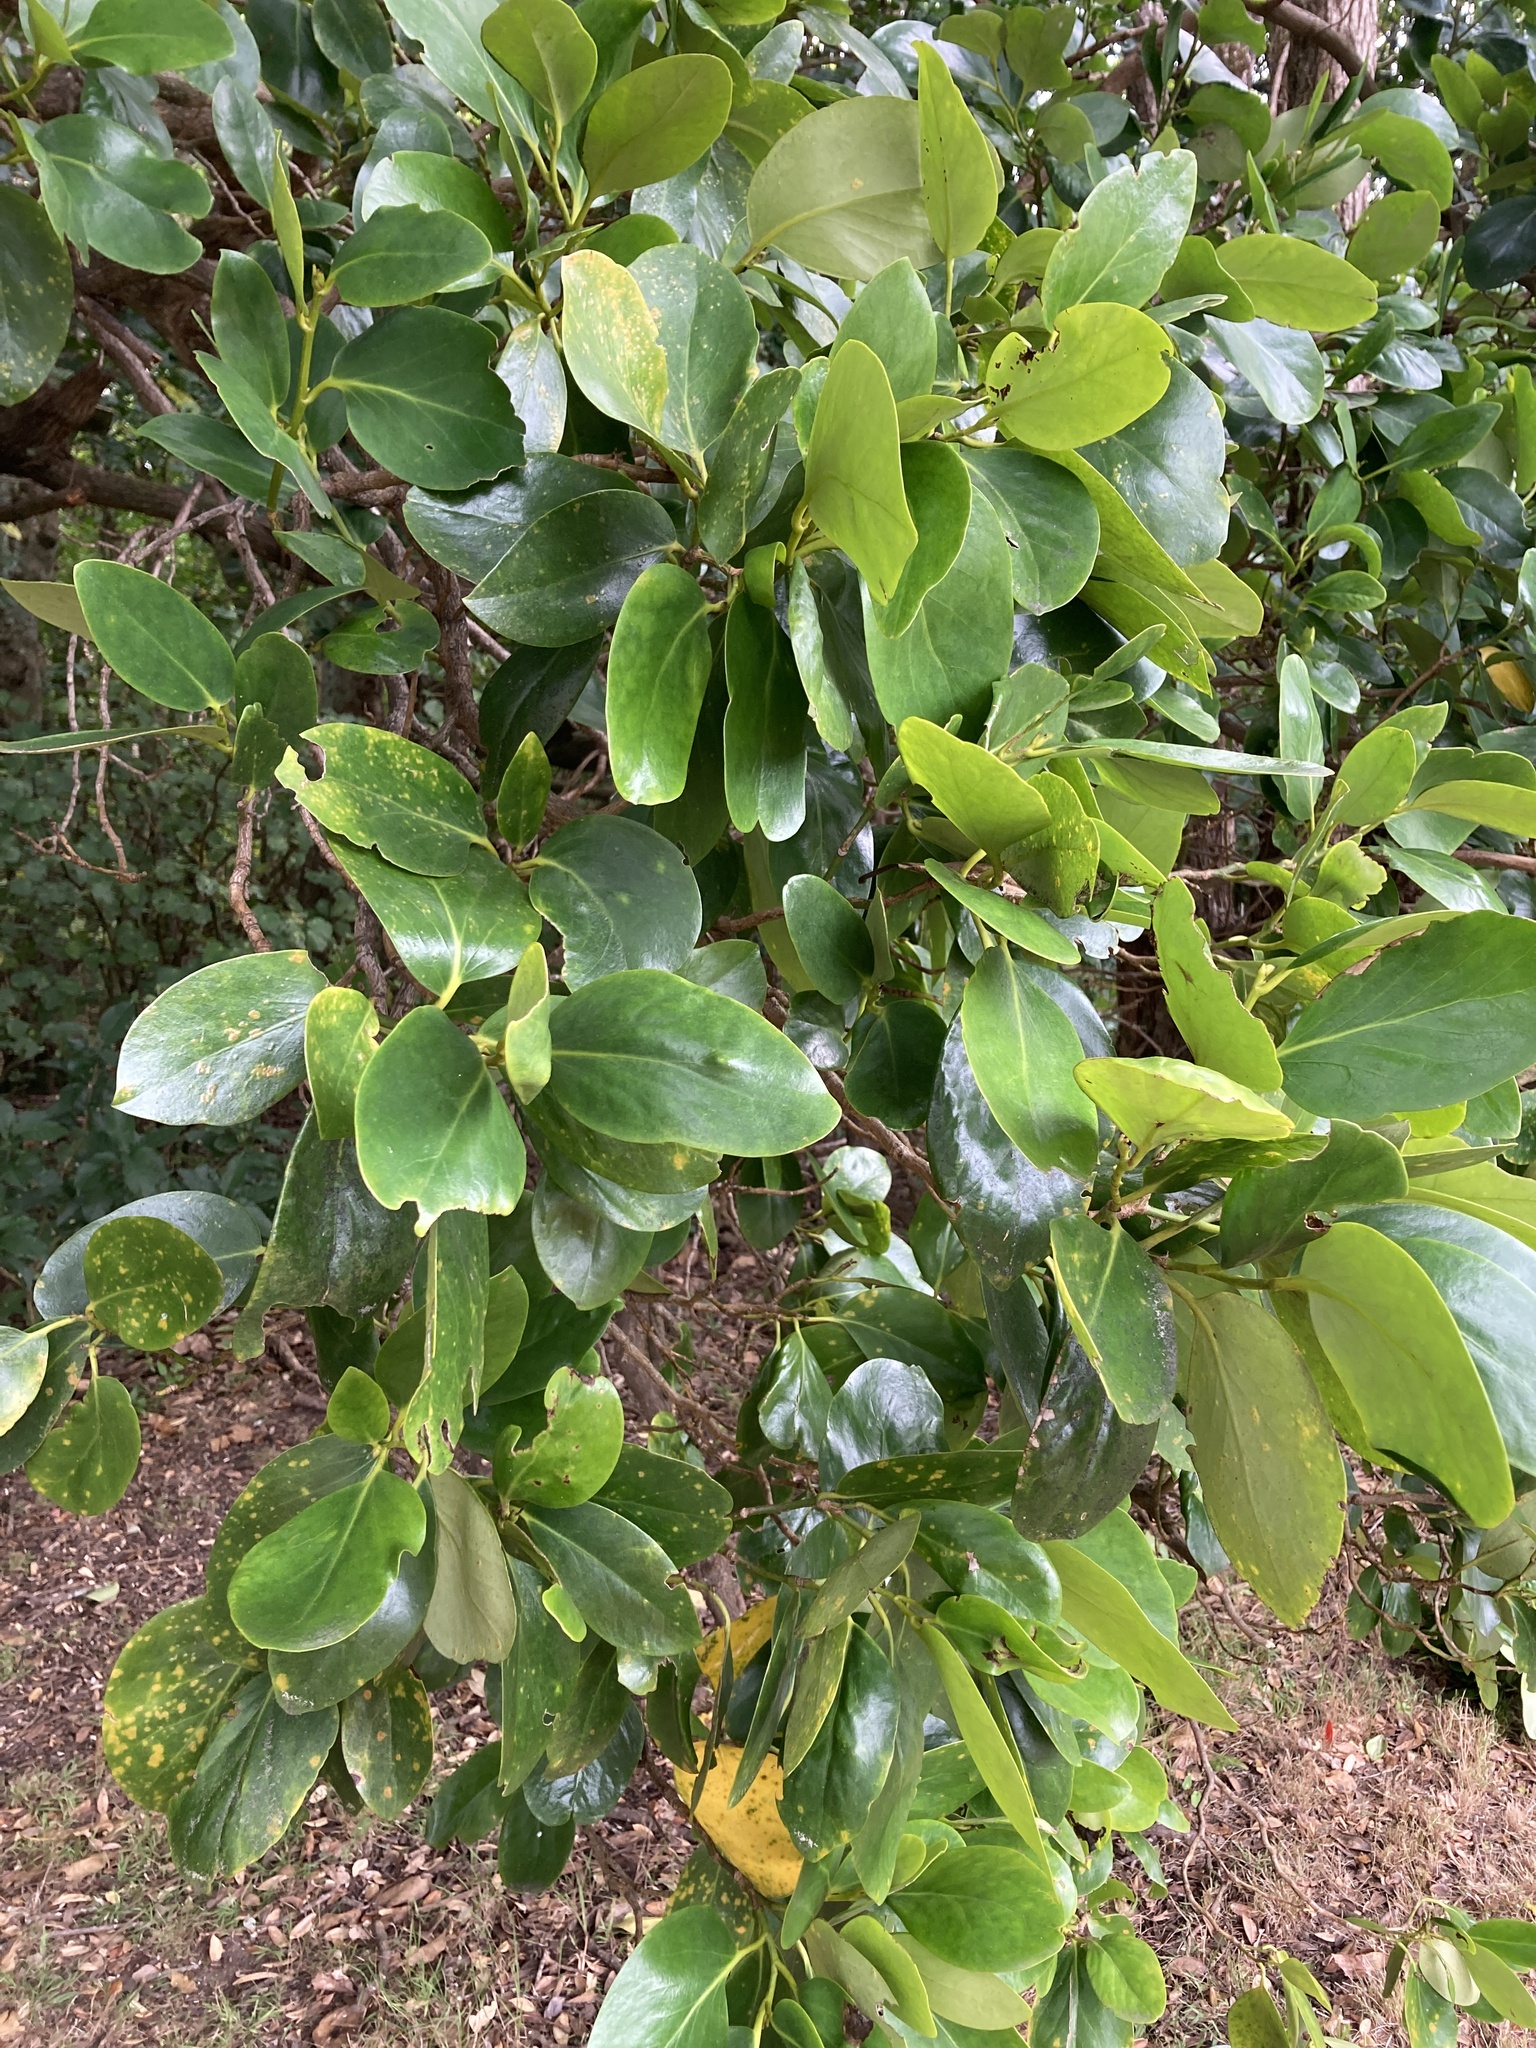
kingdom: Plantae
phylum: Tracheophyta
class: Magnoliopsida
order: Apiales
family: Griseliniaceae
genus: Griselinia
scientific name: Griselinia lucida
